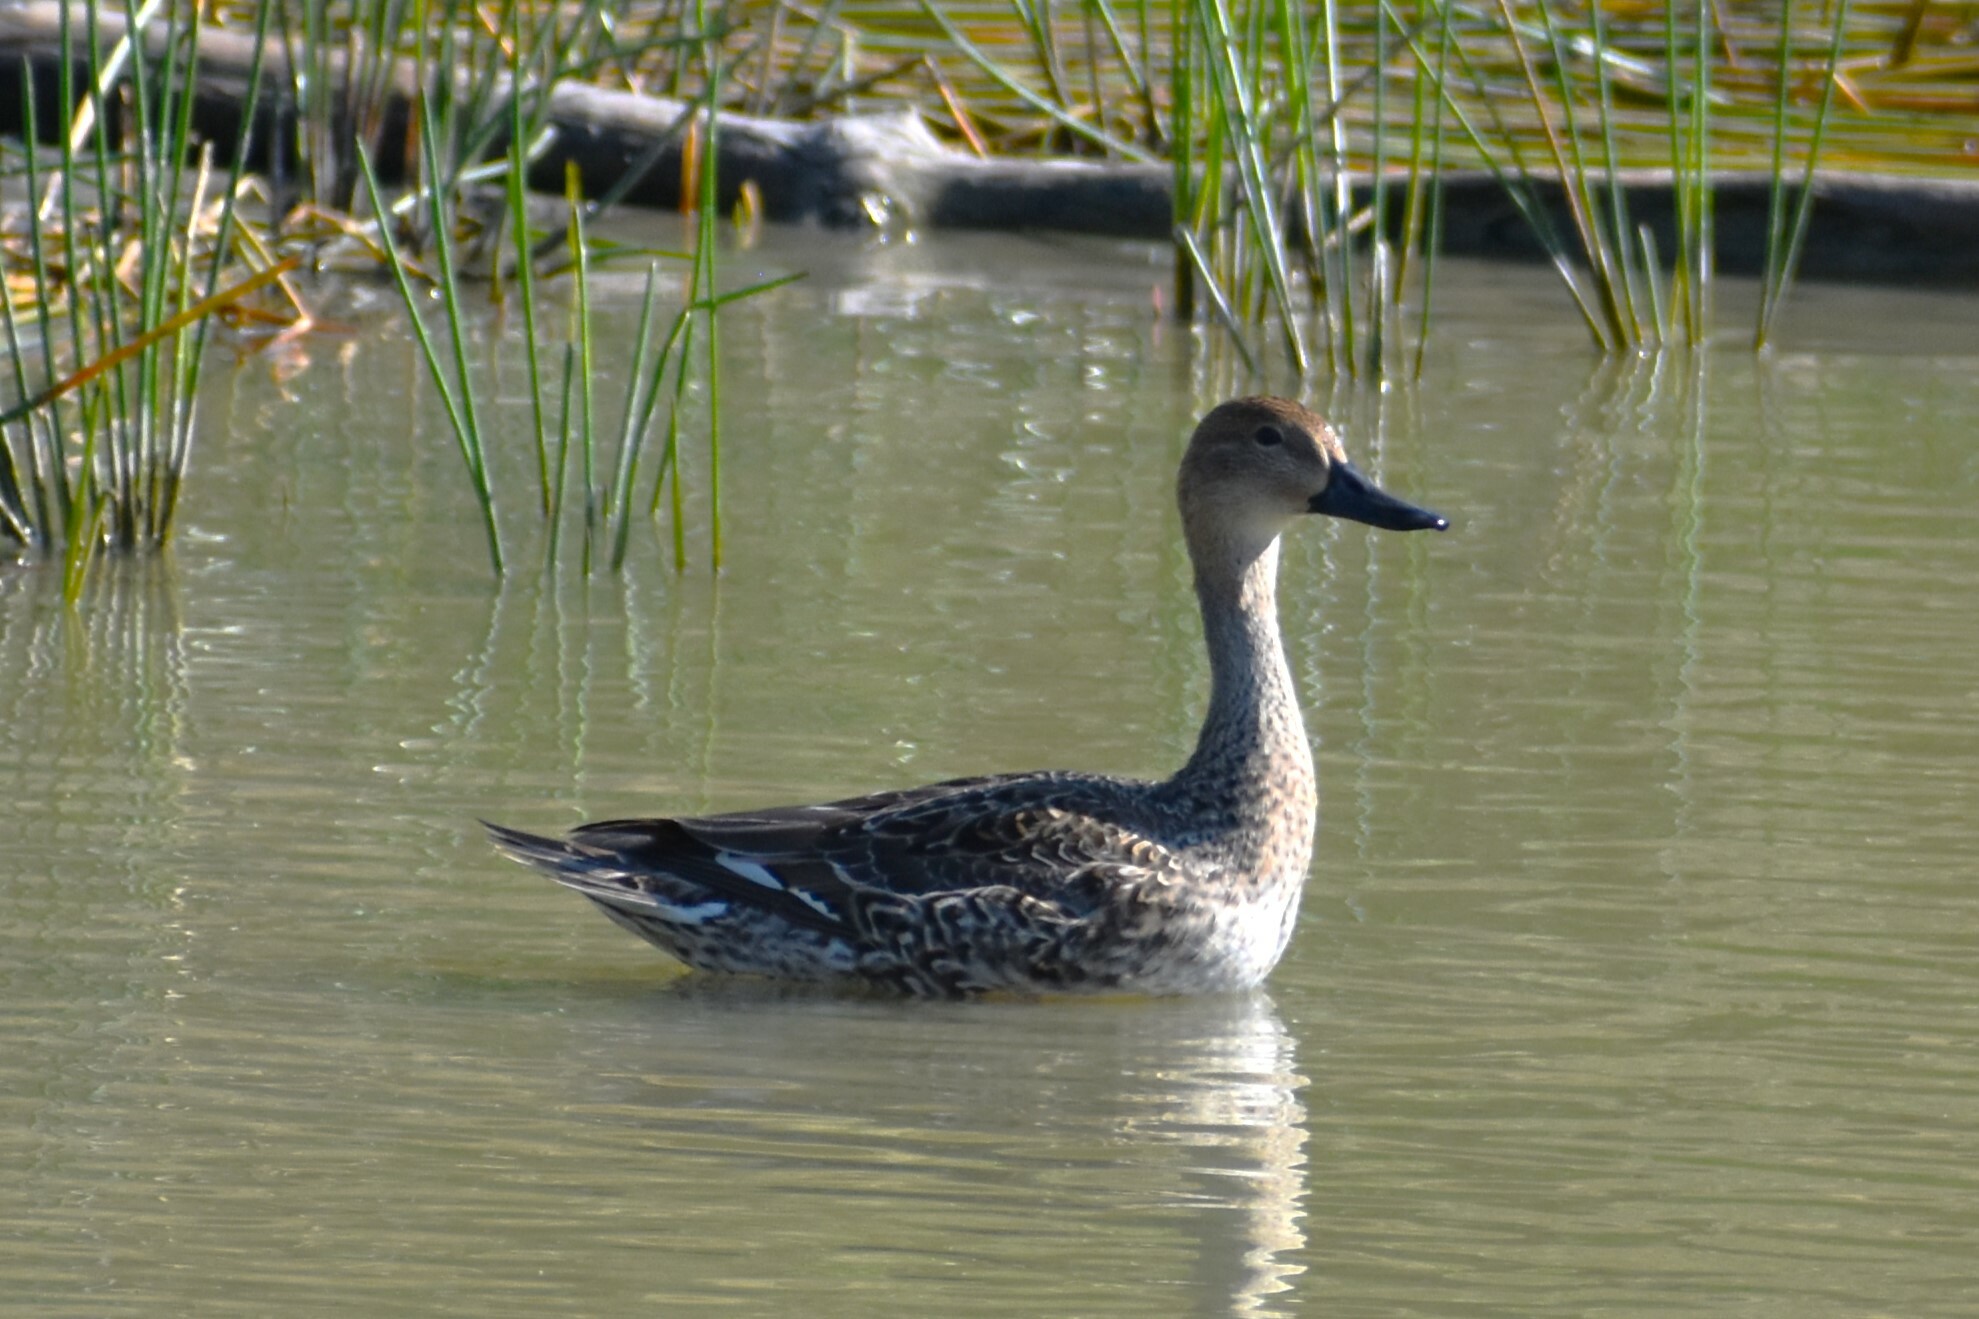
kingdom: Animalia
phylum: Chordata
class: Aves
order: Anseriformes
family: Anatidae
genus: Anas
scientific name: Anas acuta
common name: Northern pintail
